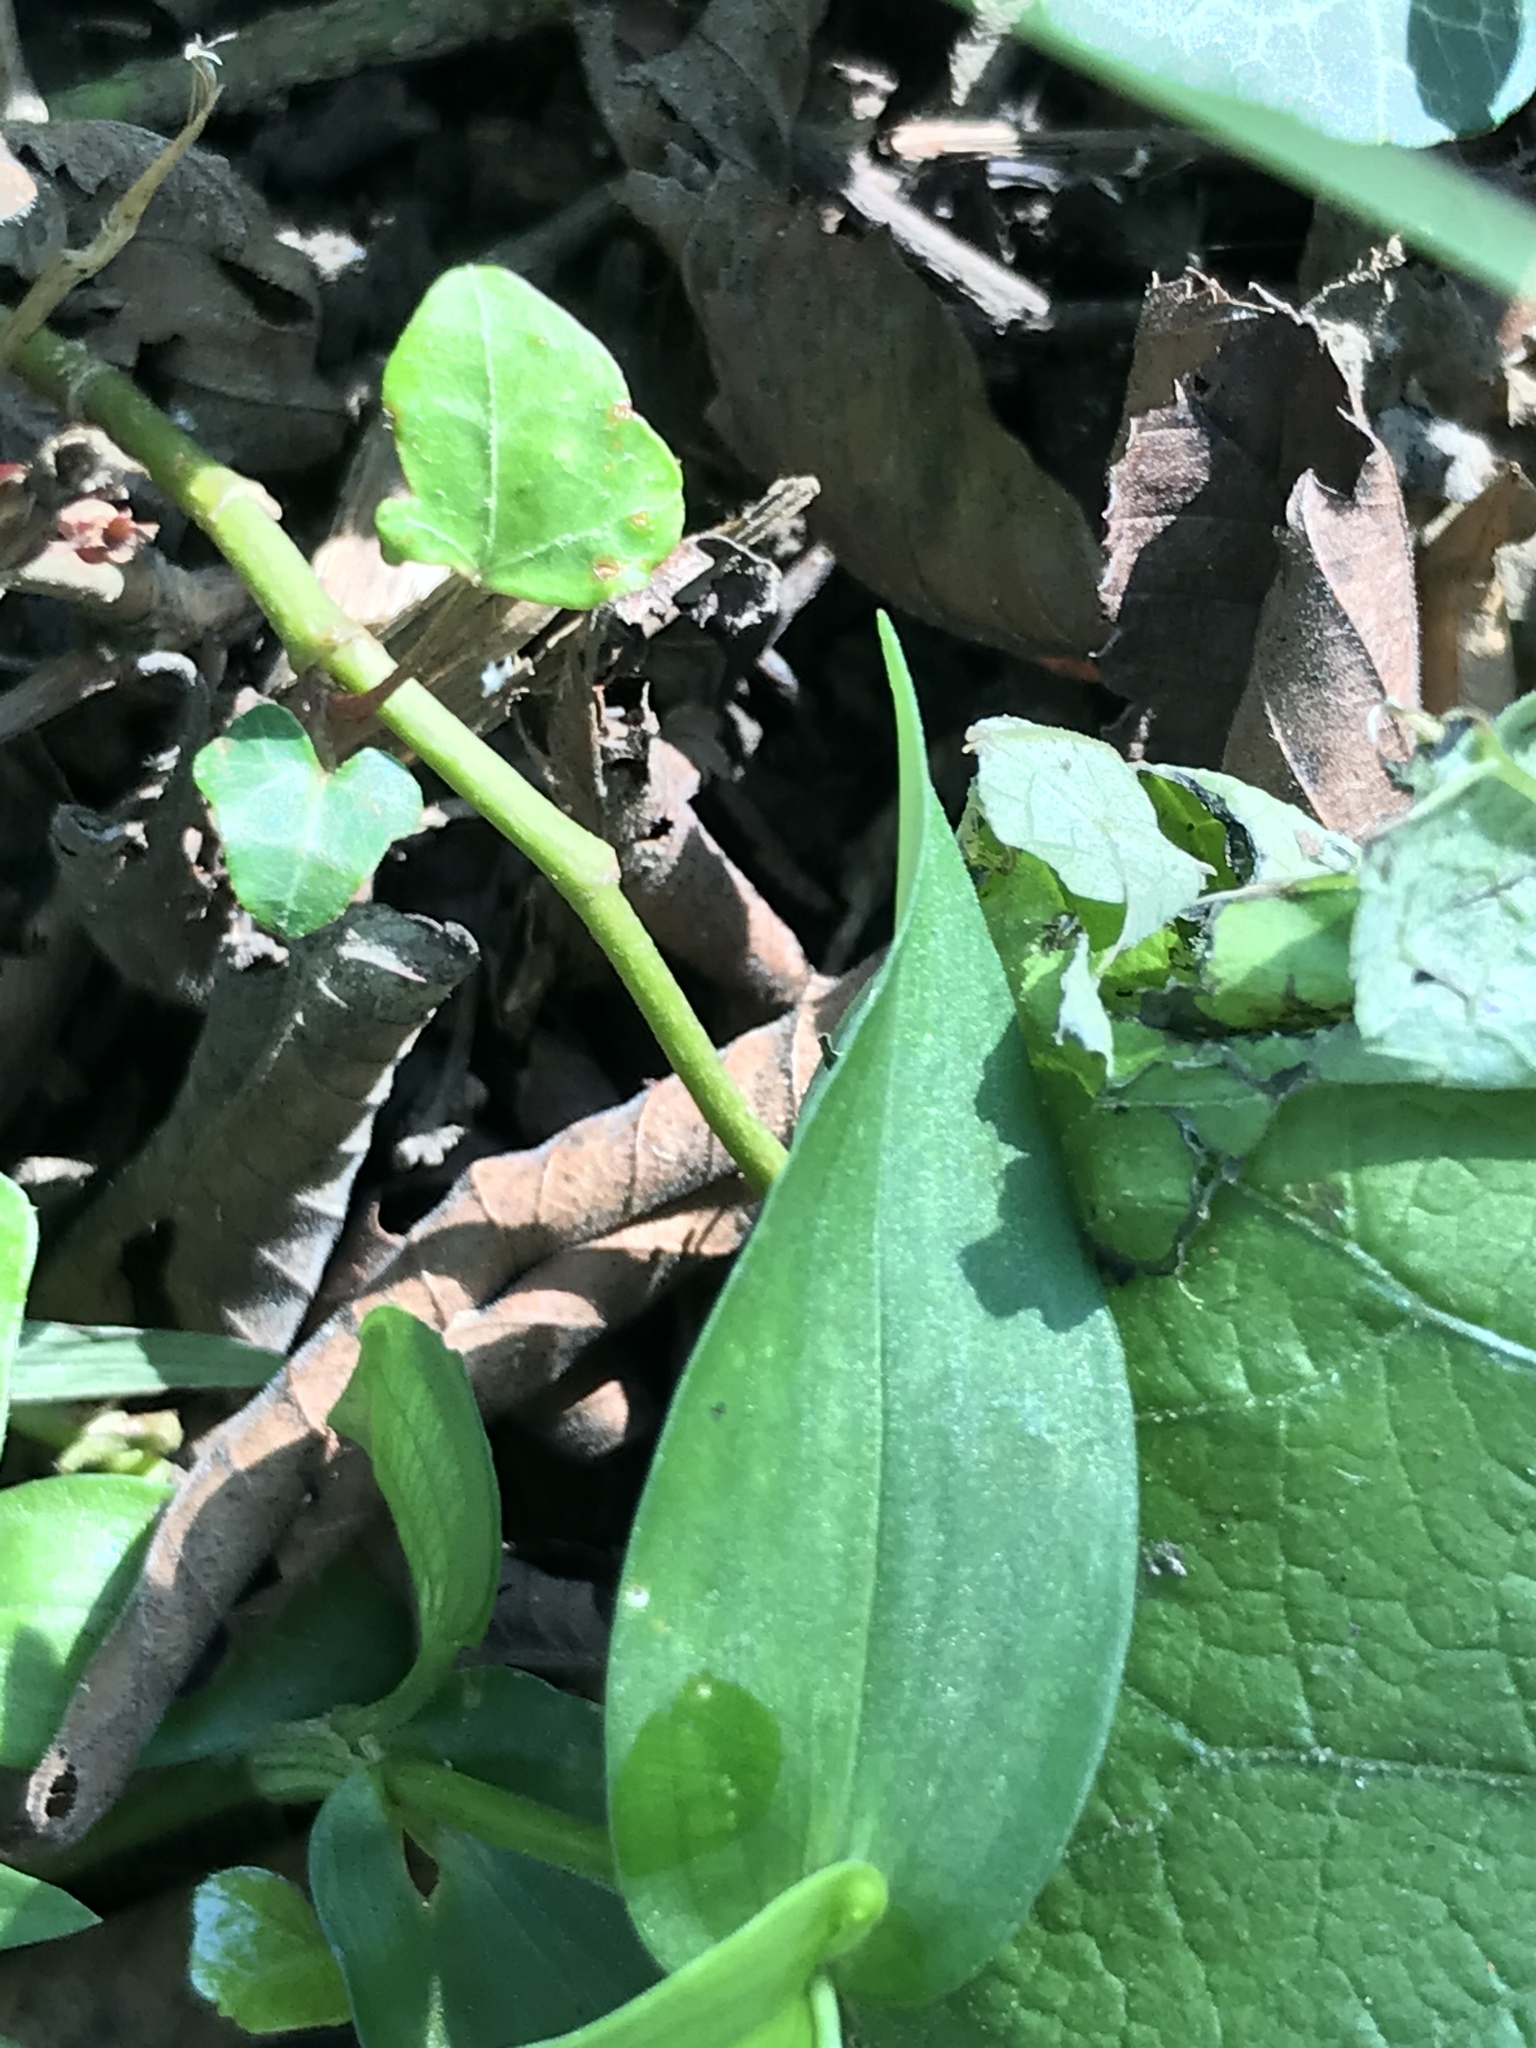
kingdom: Plantae
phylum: Tracheophyta
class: Liliopsida
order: Commelinales
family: Commelinaceae
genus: Commelina
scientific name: Commelina communis
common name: Asiatic dayflower
